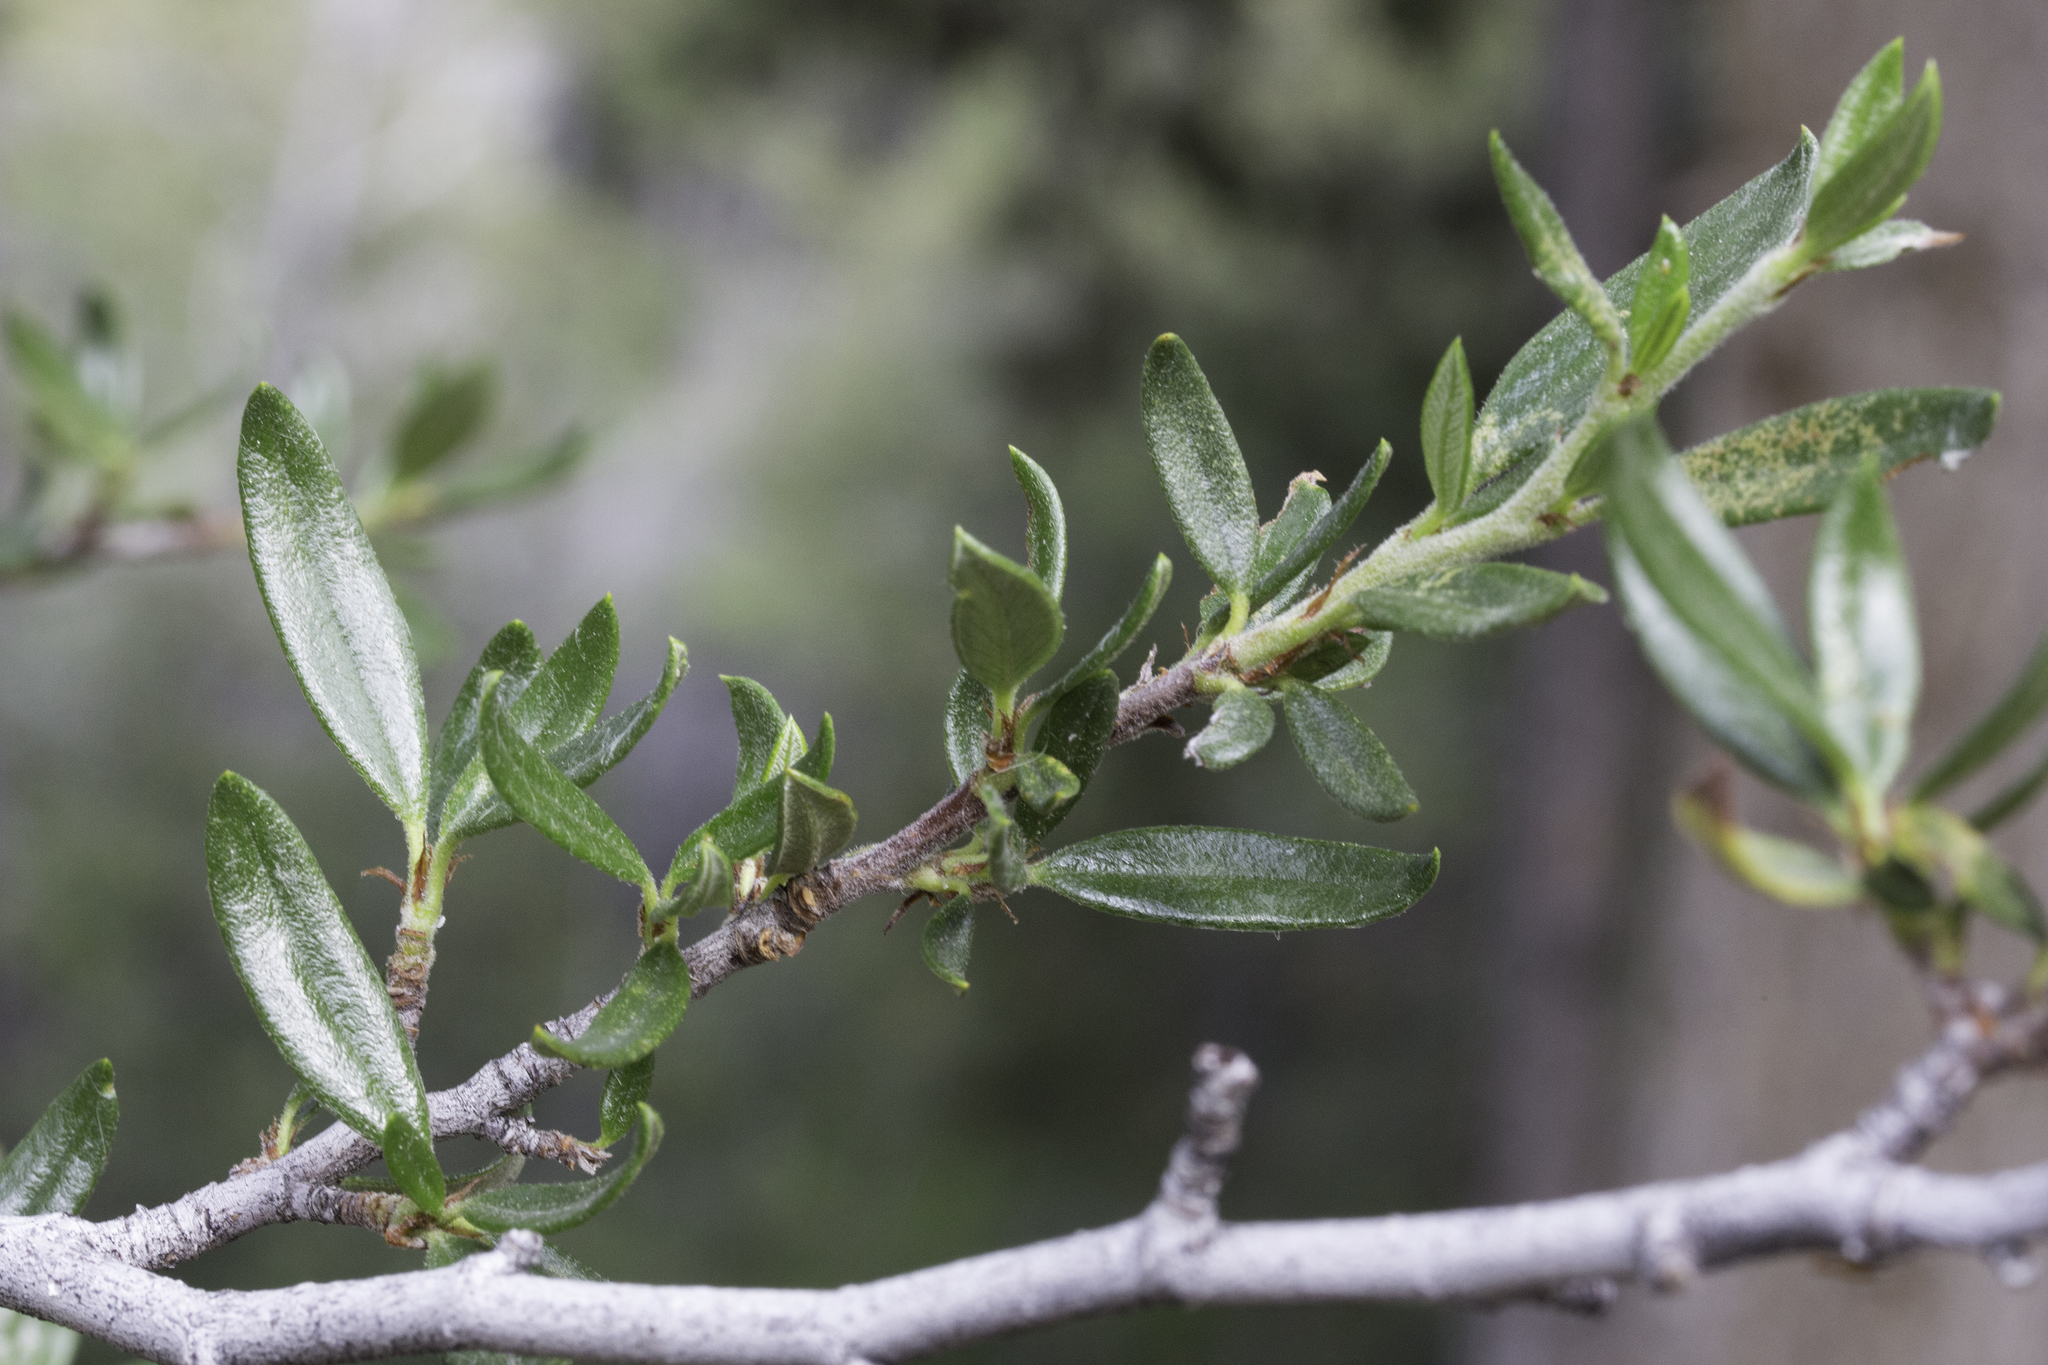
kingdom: Plantae
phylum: Tracheophyta
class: Magnoliopsida
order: Rosales
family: Rosaceae
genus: Cercocarpus
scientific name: Cercocarpus ledifolius
